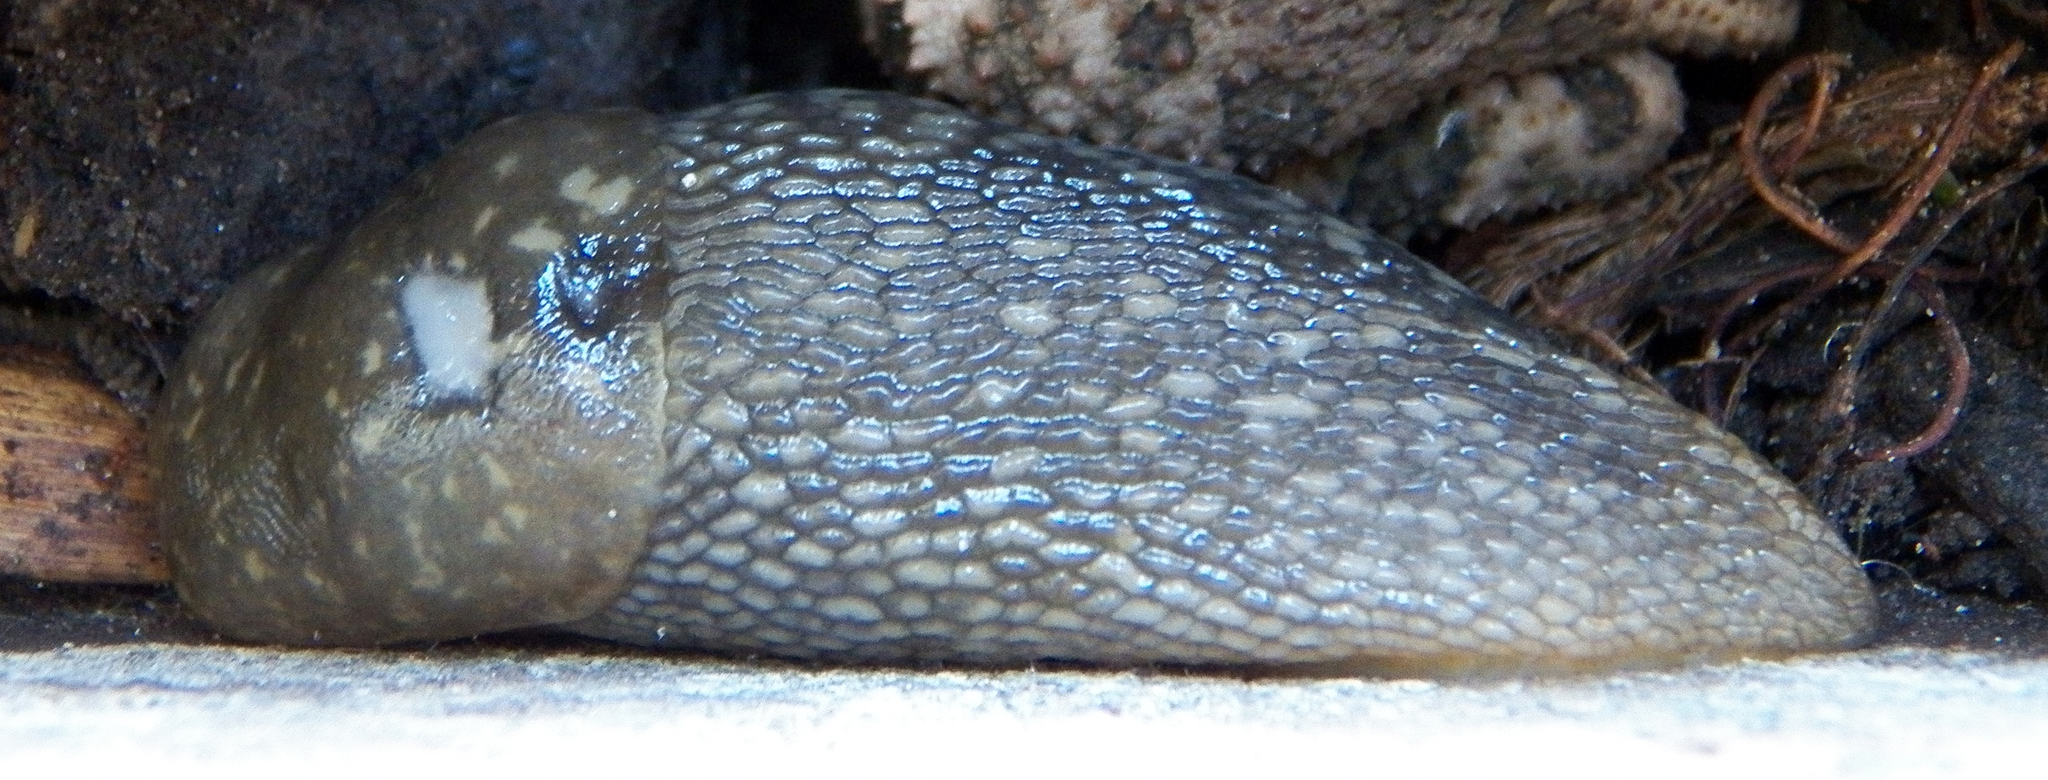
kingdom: Animalia
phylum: Mollusca
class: Gastropoda
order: Stylommatophora
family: Limacidae
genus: Limacus
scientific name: Limacus flavus
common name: Yellow gardenslug
